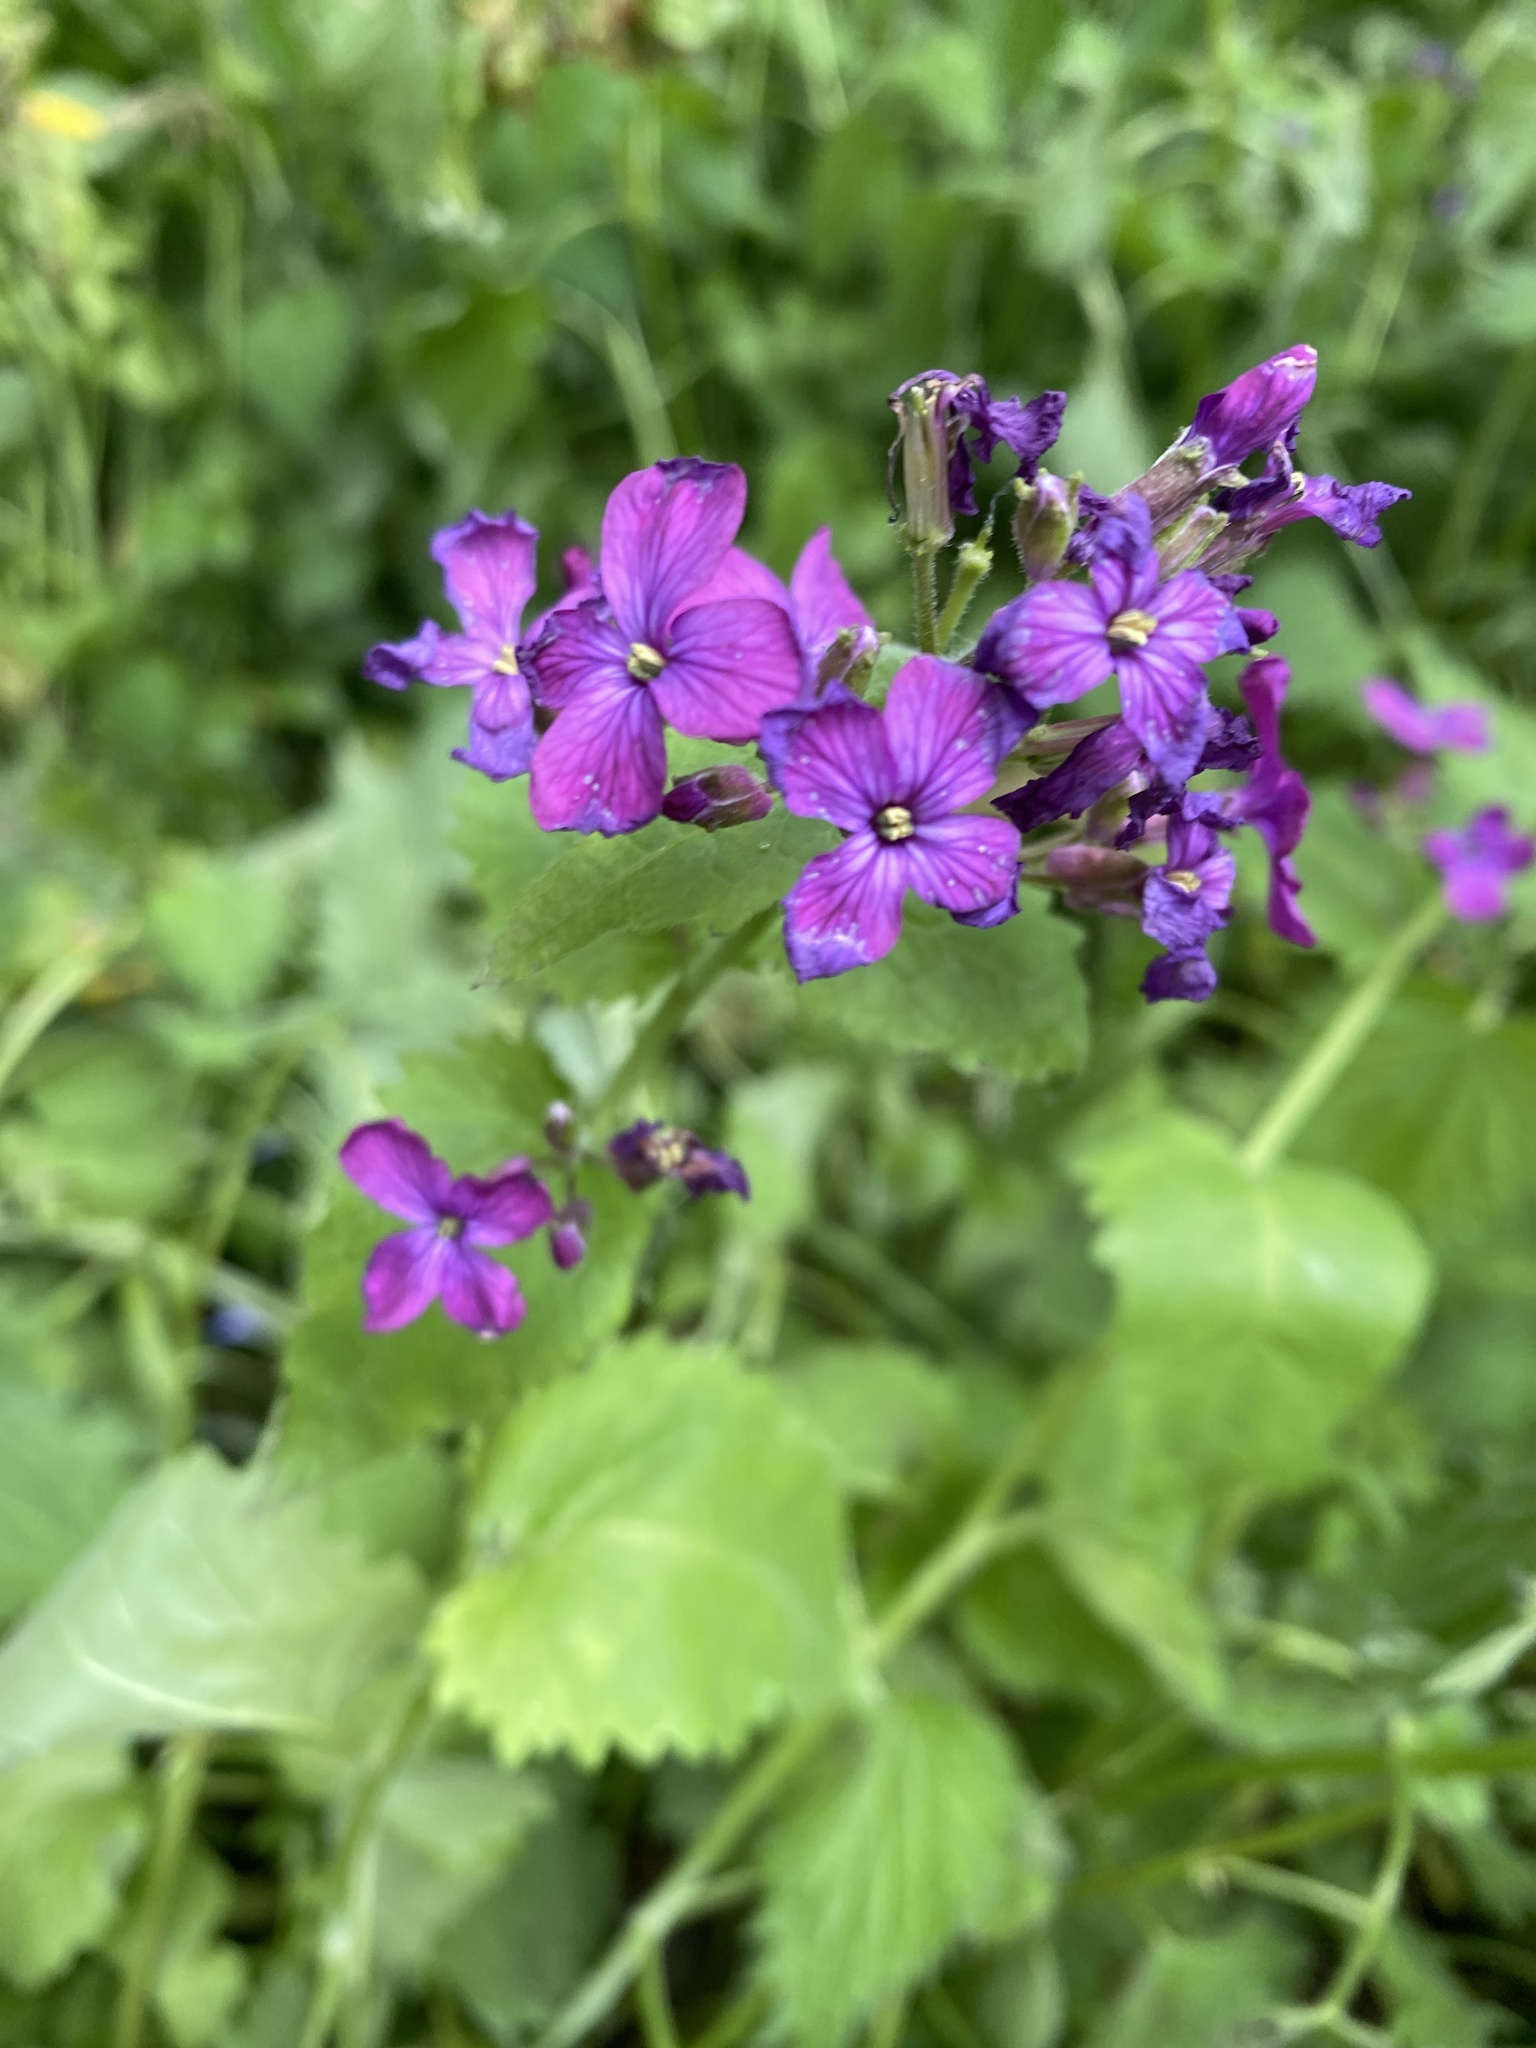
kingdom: Plantae
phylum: Tracheophyta
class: Magnoliopsida
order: Brassicales
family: Brassicaceae
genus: Lunaria
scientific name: Lunaria annua
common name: Honesty
